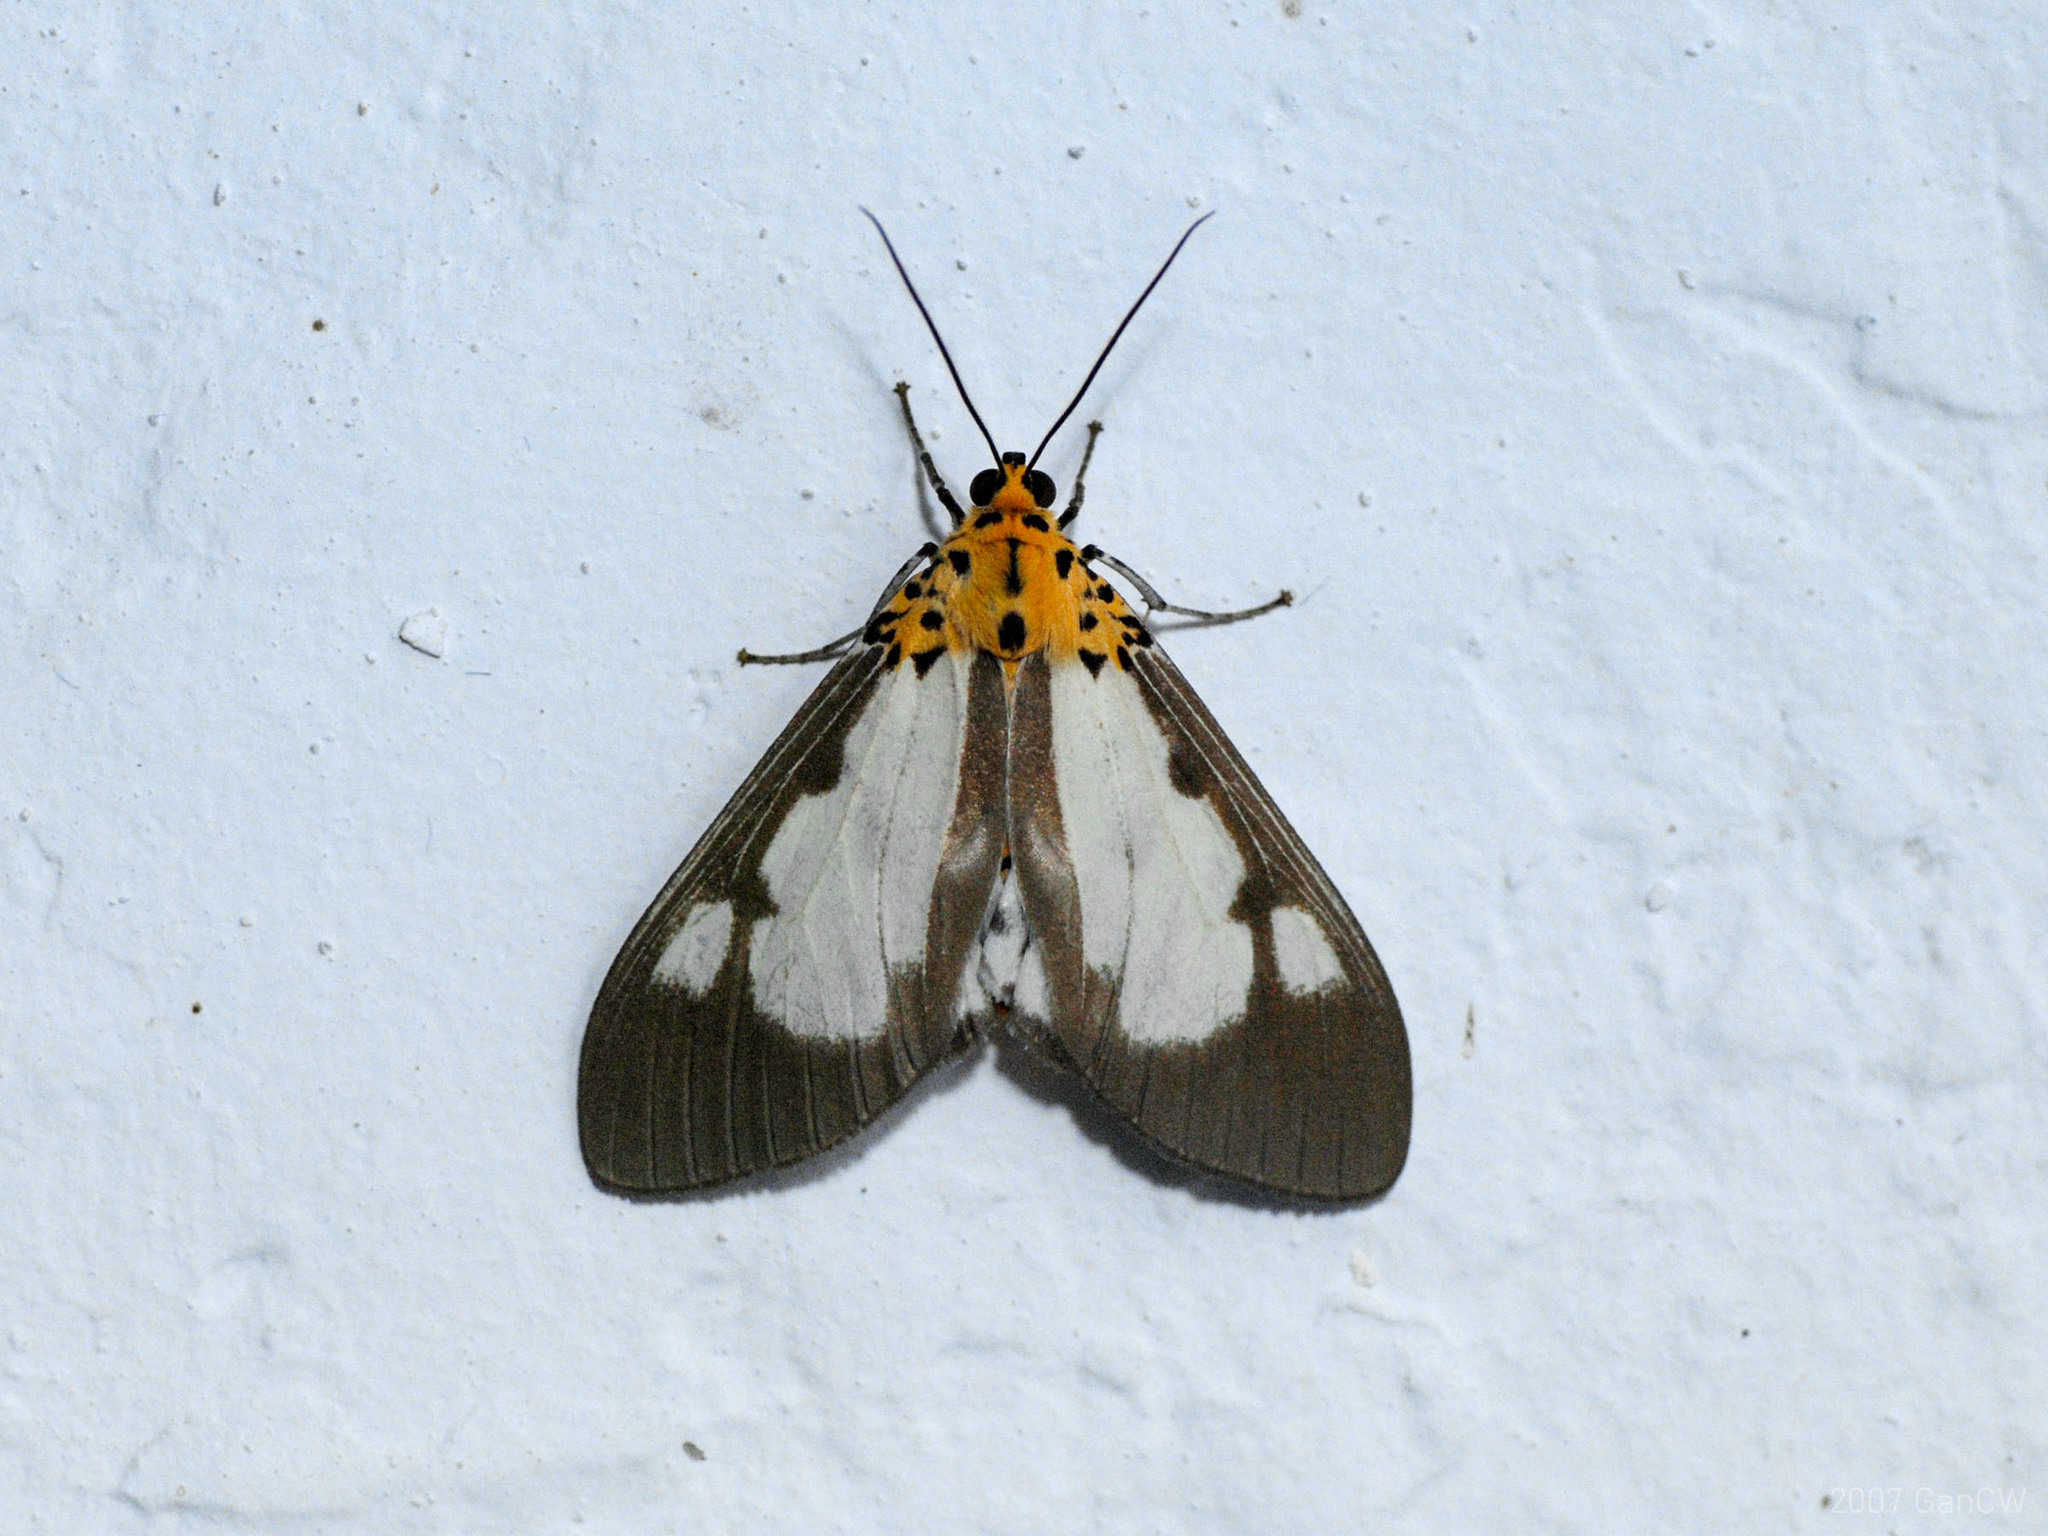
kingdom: Animalia
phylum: Arthropoda
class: Insecta
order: Lepidoptera
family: Erebidae
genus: Asota
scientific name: Asota plana
